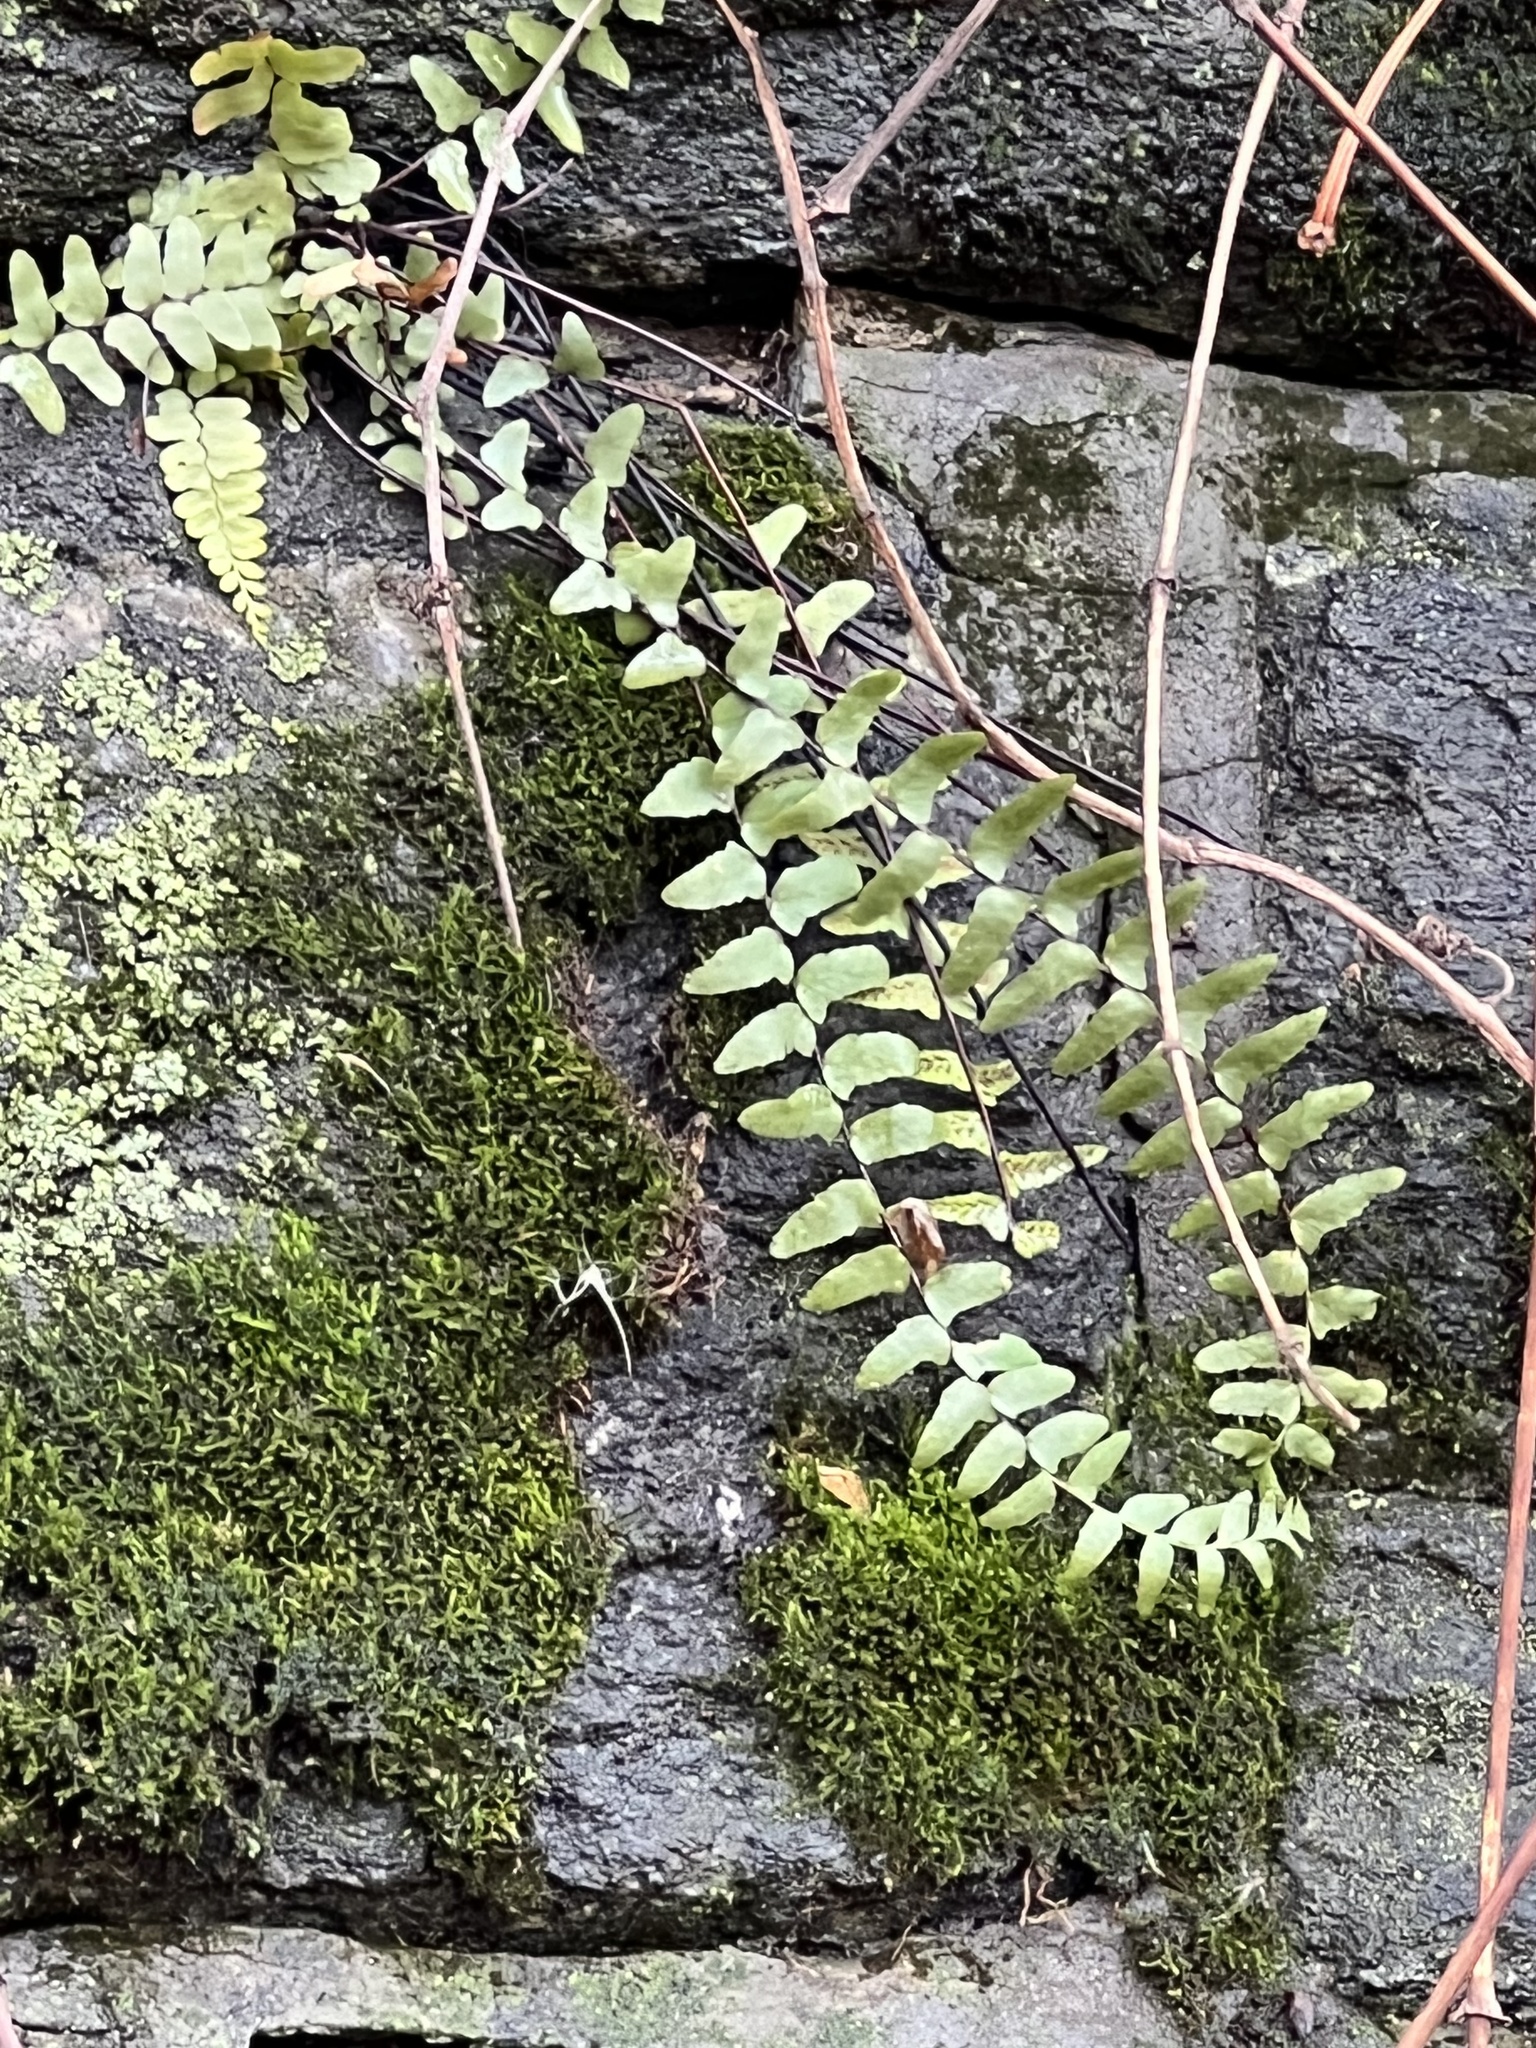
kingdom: Plantae
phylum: Tracheophyta
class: Polypodiopsida
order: Polypodiales
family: Aspleniaceae
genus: Asplenium
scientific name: Asplenium platyneuron
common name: Ebony spleenwort
